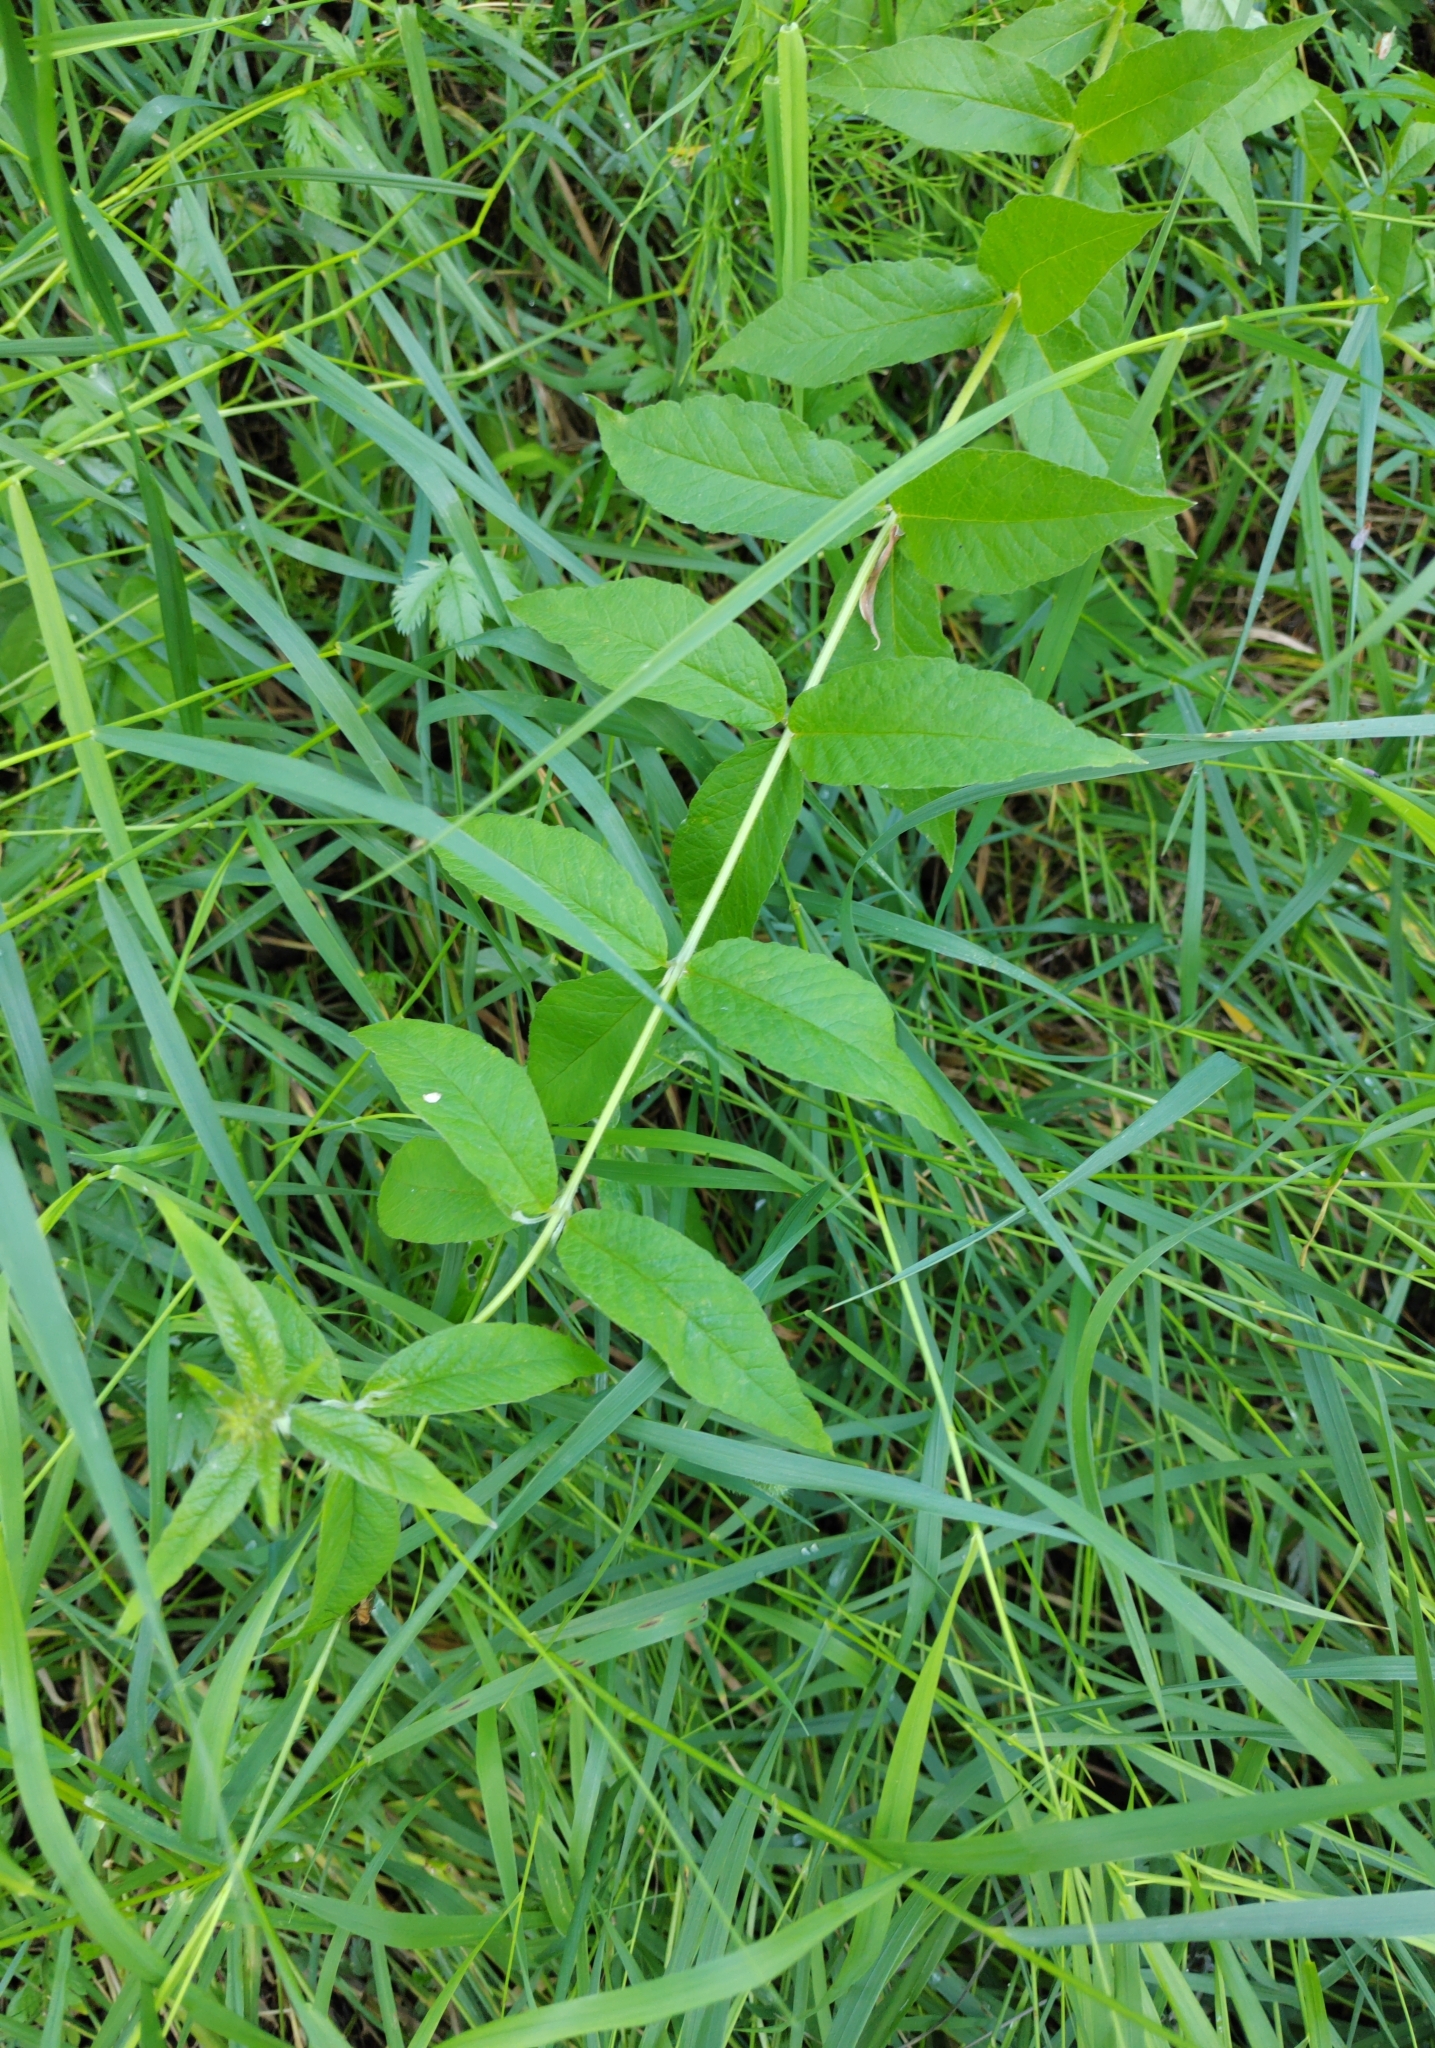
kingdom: Plantae
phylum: Tracheophyta
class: Magnoliopsida
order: Ericales
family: Primulaceae
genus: Lysimachia
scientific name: Lysimachia vulgaris
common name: Yellow loosestrife
